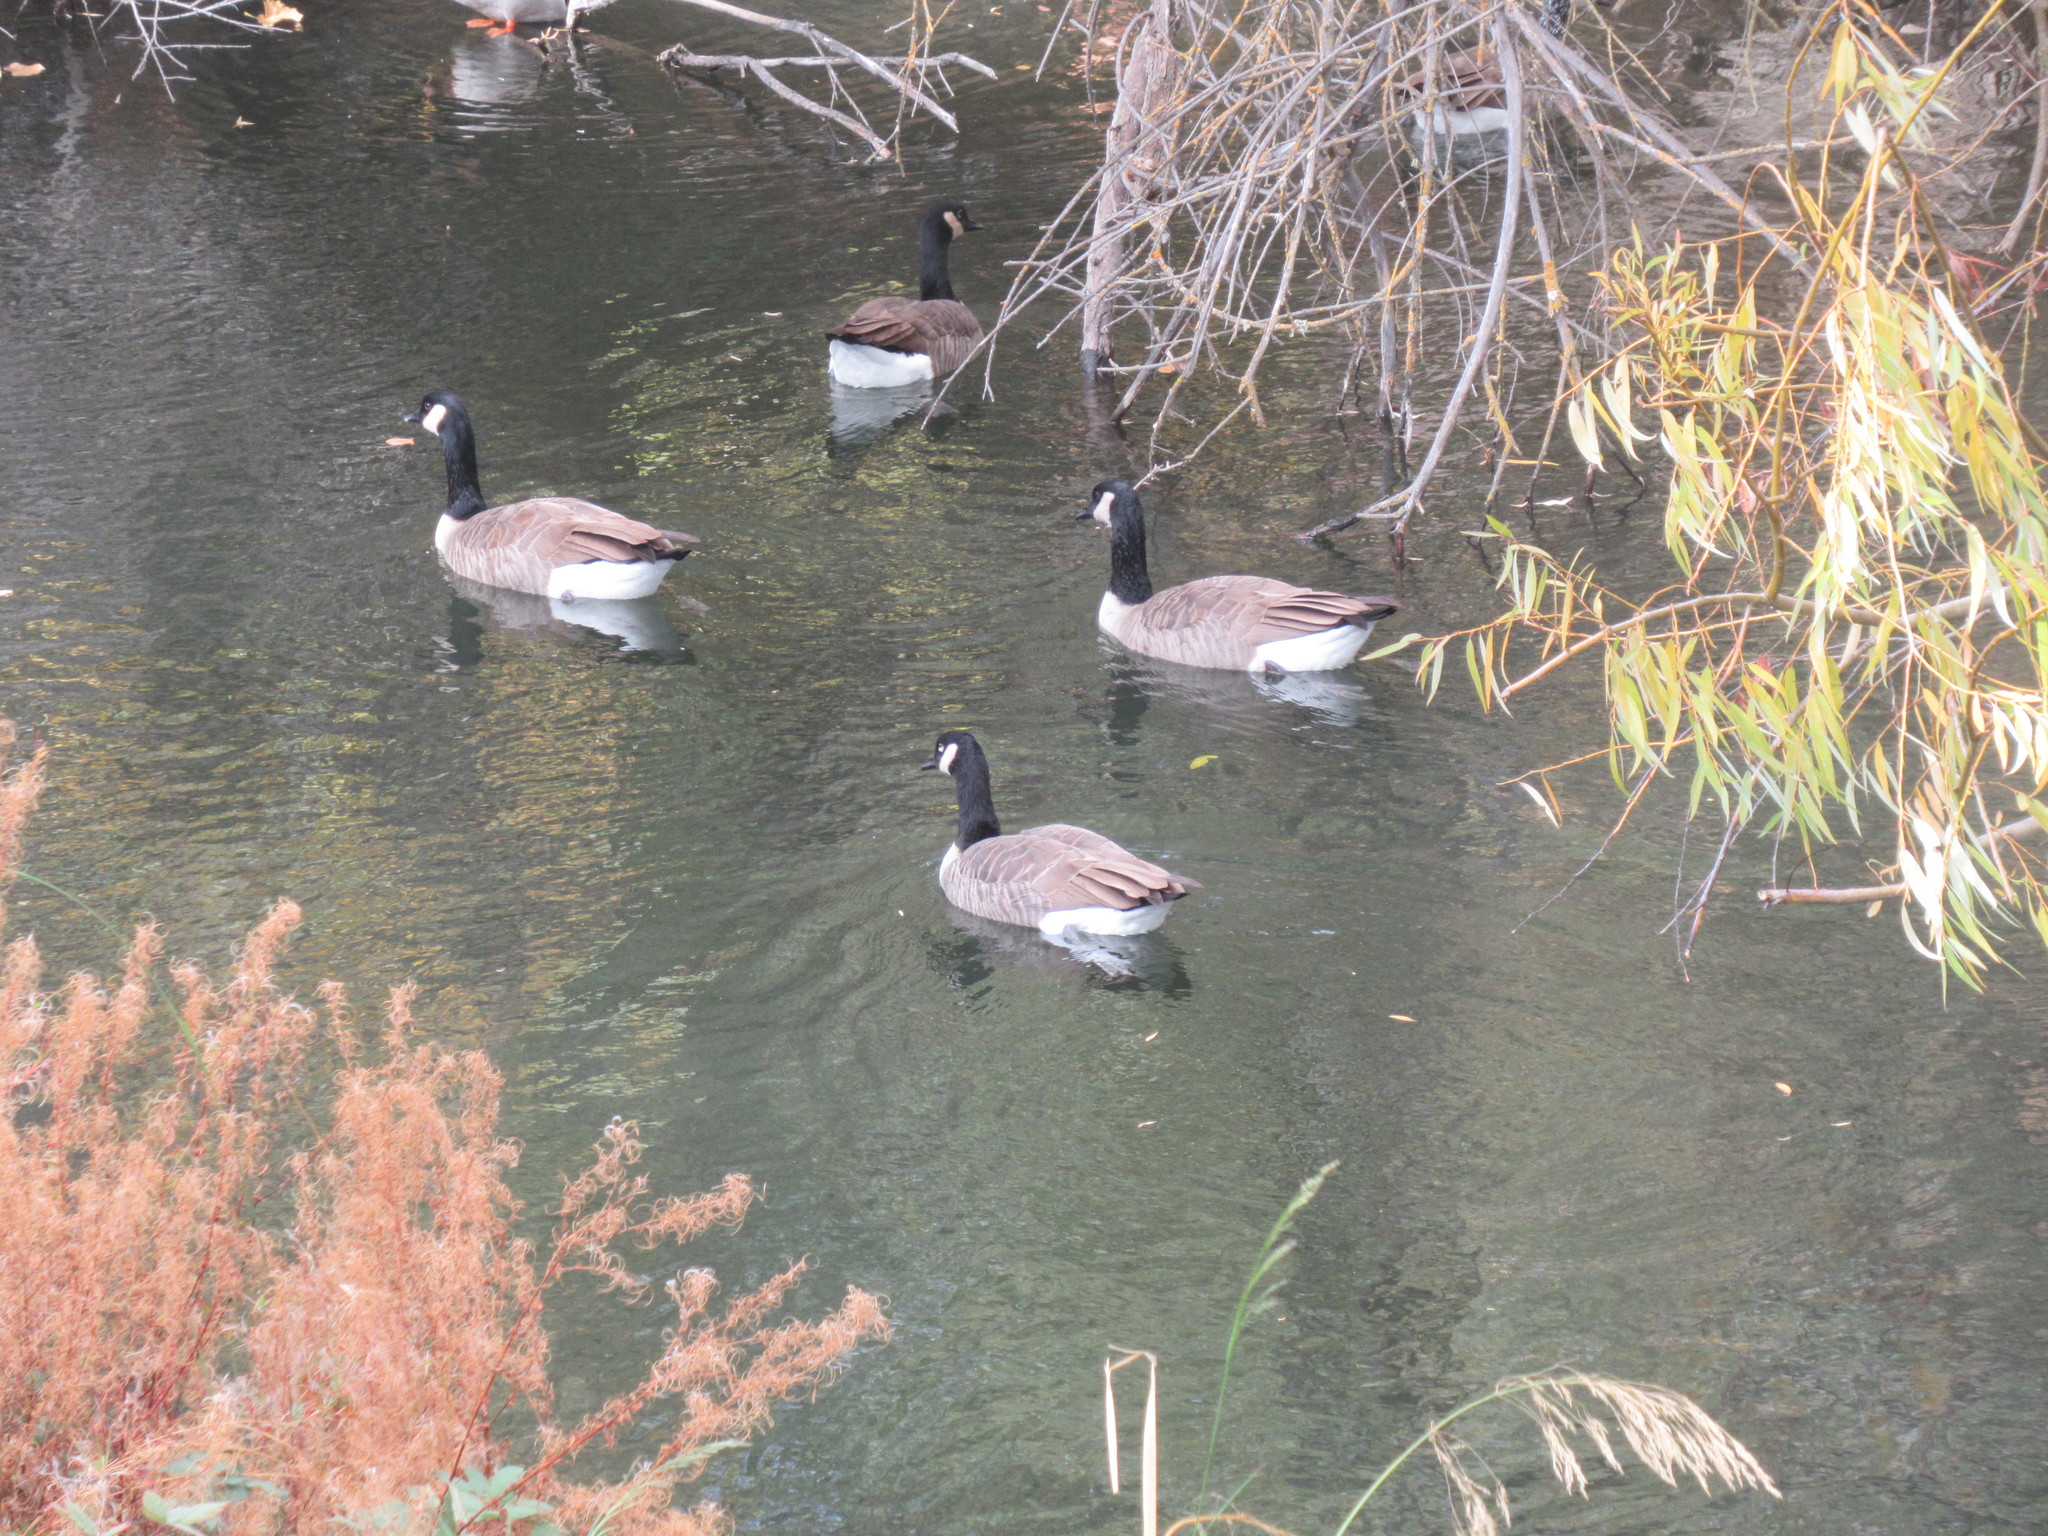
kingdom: Animalia
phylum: Chordata
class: Aves
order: Anseriformes
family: Anatidae
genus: Branta
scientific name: Branta canadensis
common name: Canada goose
